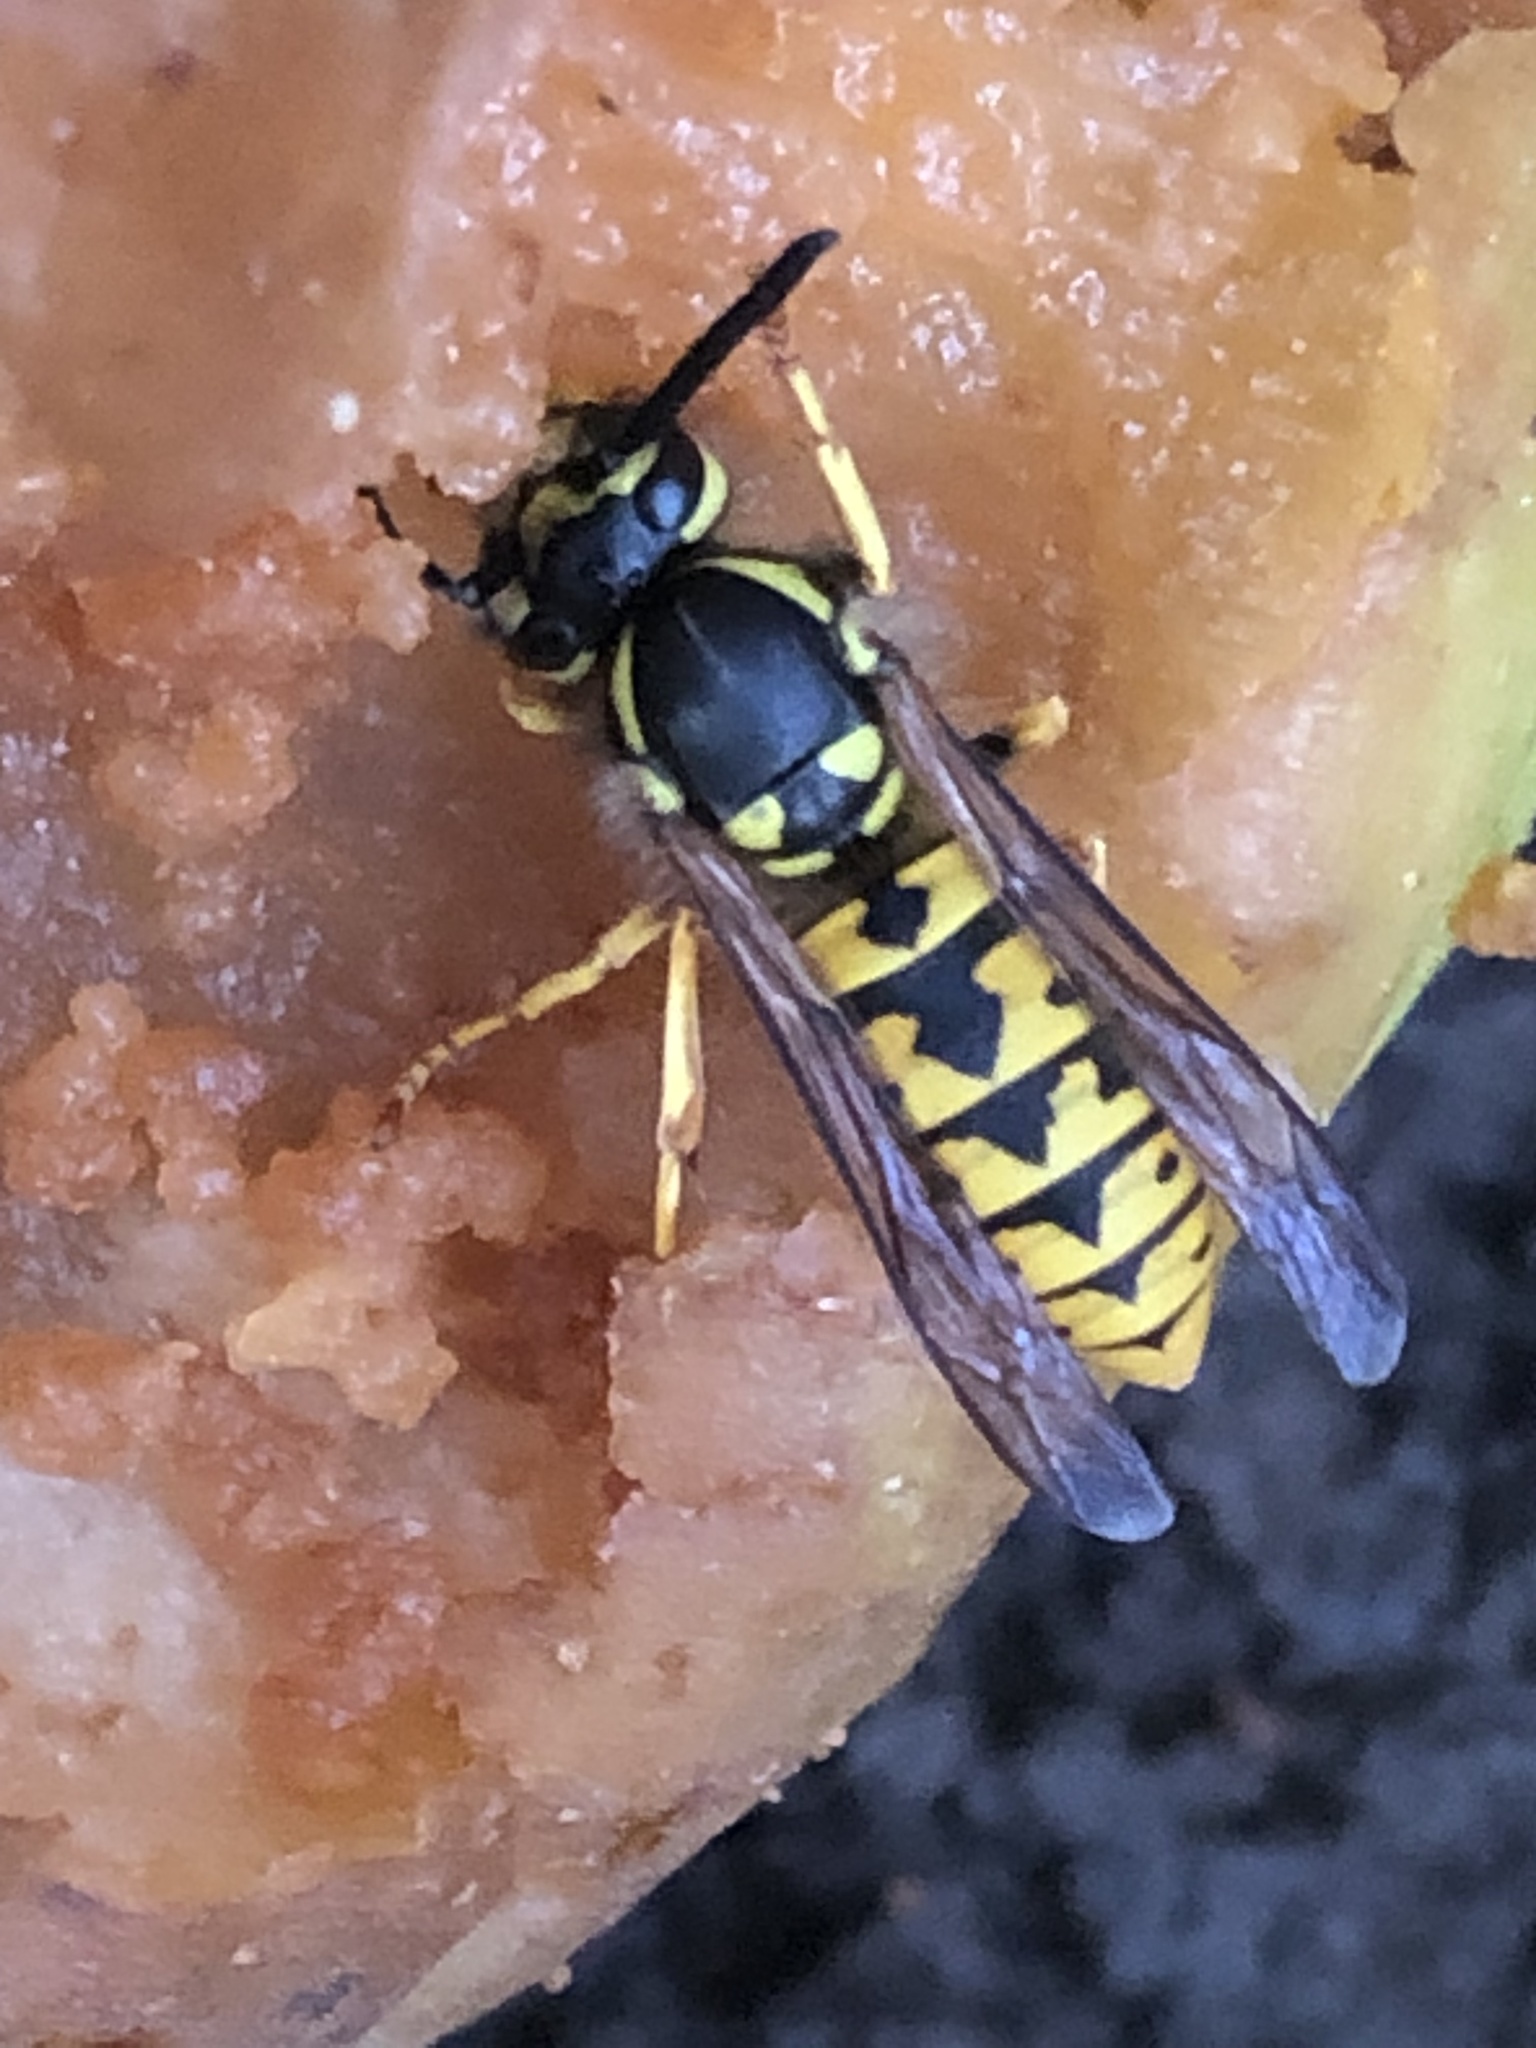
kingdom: Animalia
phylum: Arthropoda
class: Insecta
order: Hymenoptera
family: Vespidae
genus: Vespula
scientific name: Vespula germanica
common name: German wasp
